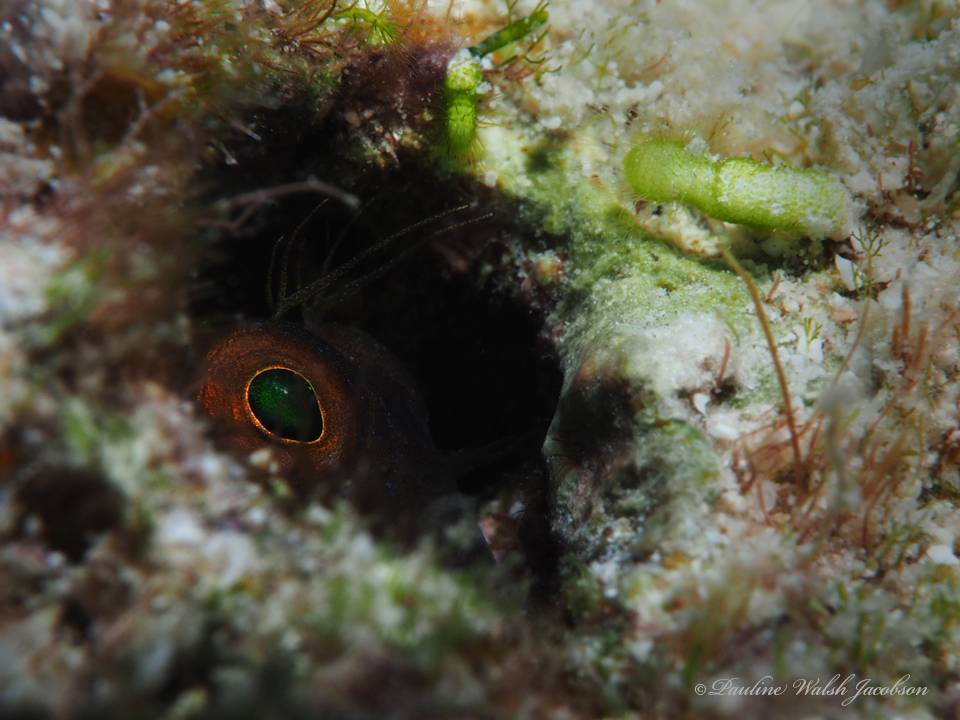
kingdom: Animalia
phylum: Chordata
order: Perciformes
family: Blenniidae
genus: Parablennius
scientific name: Parablennius marmoreus
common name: Seaweed blenny
